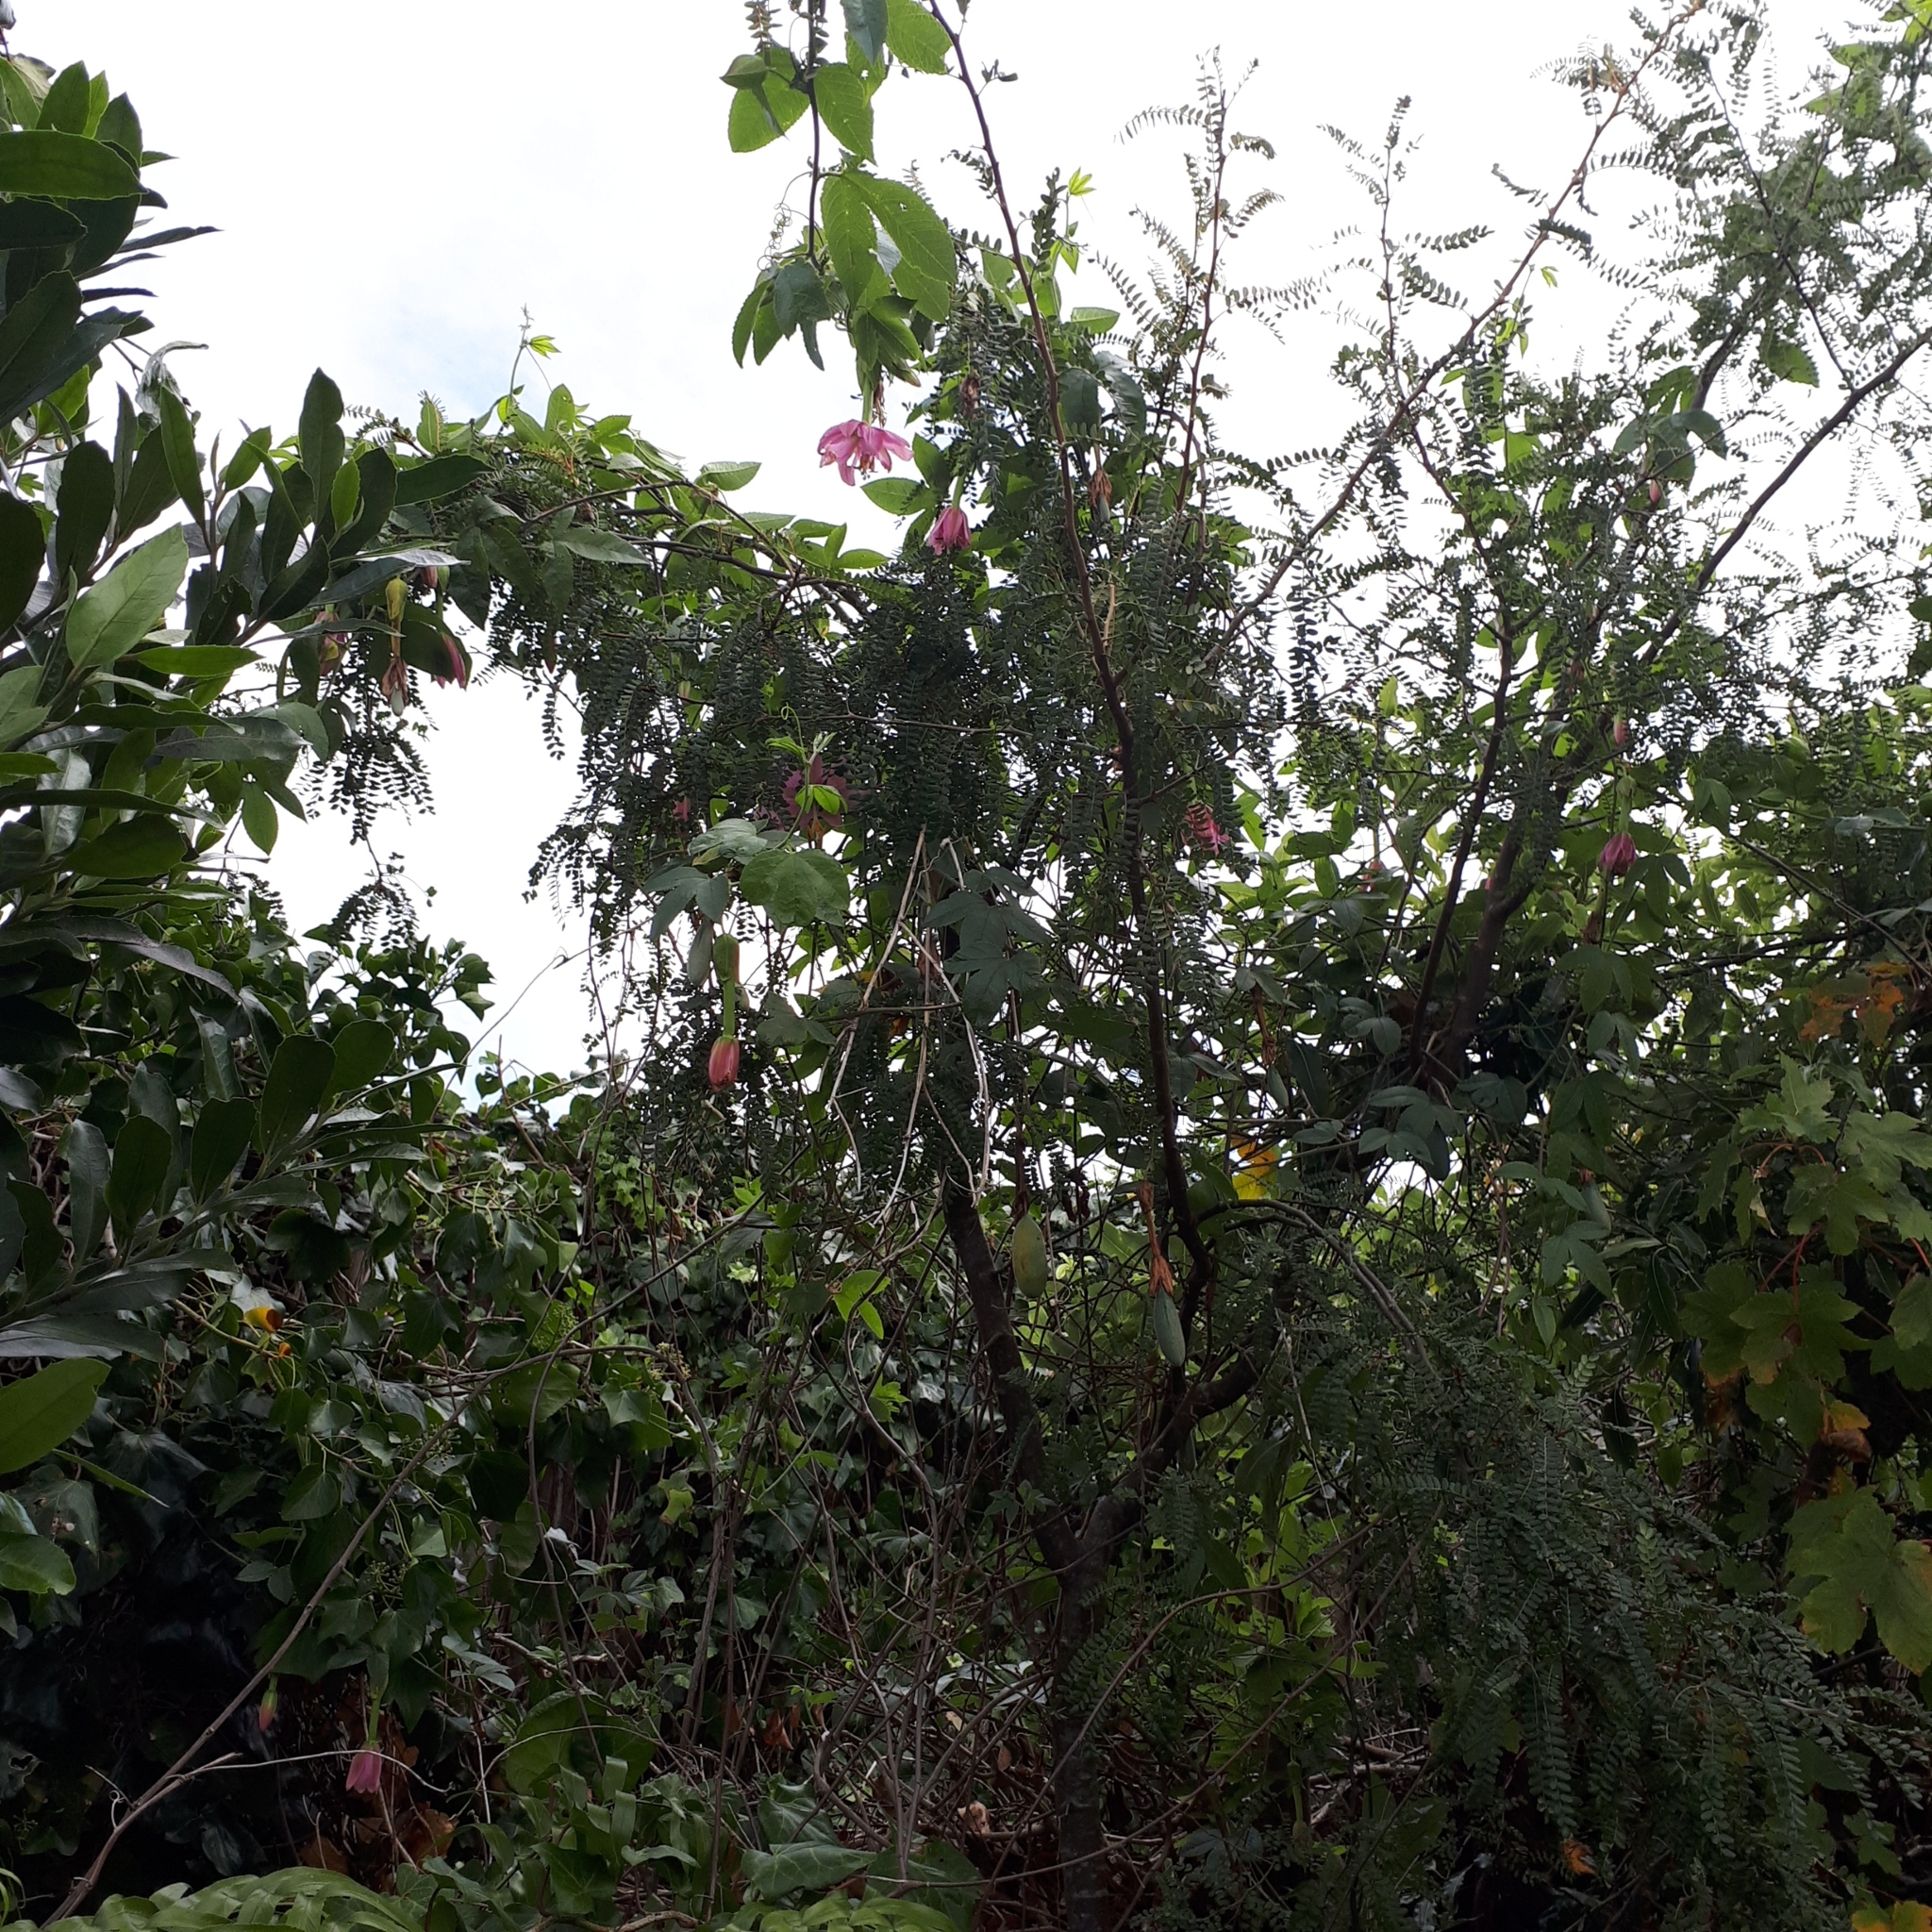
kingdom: Plantae
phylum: Tracheophyta
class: Magnoliopsida
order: Malpighiales
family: Passifloraceae
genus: Passiflora
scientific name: Passiflora tarminiana
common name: Banana poka
